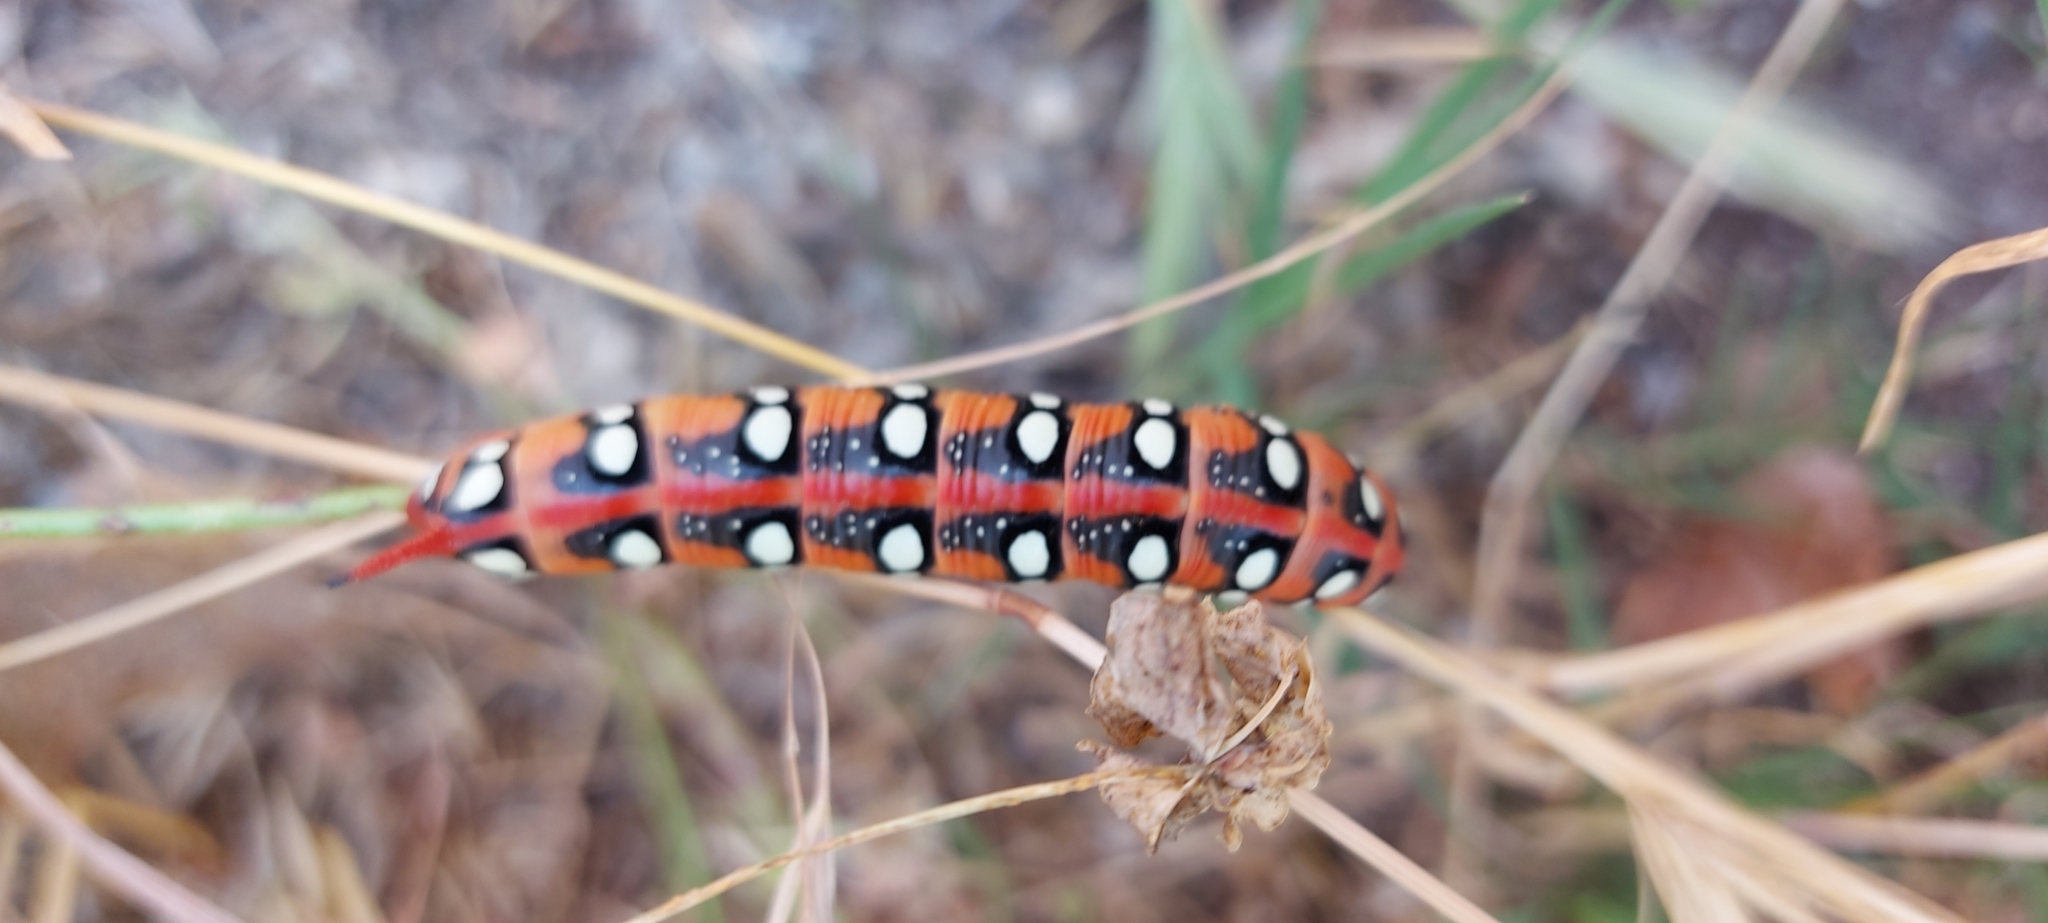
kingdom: Animalia
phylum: Arthropoda
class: Insecta
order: Lepidoptera
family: Sphingidae
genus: Hyles
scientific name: Hyles euphorbiae
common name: Spurge hawk-moth
